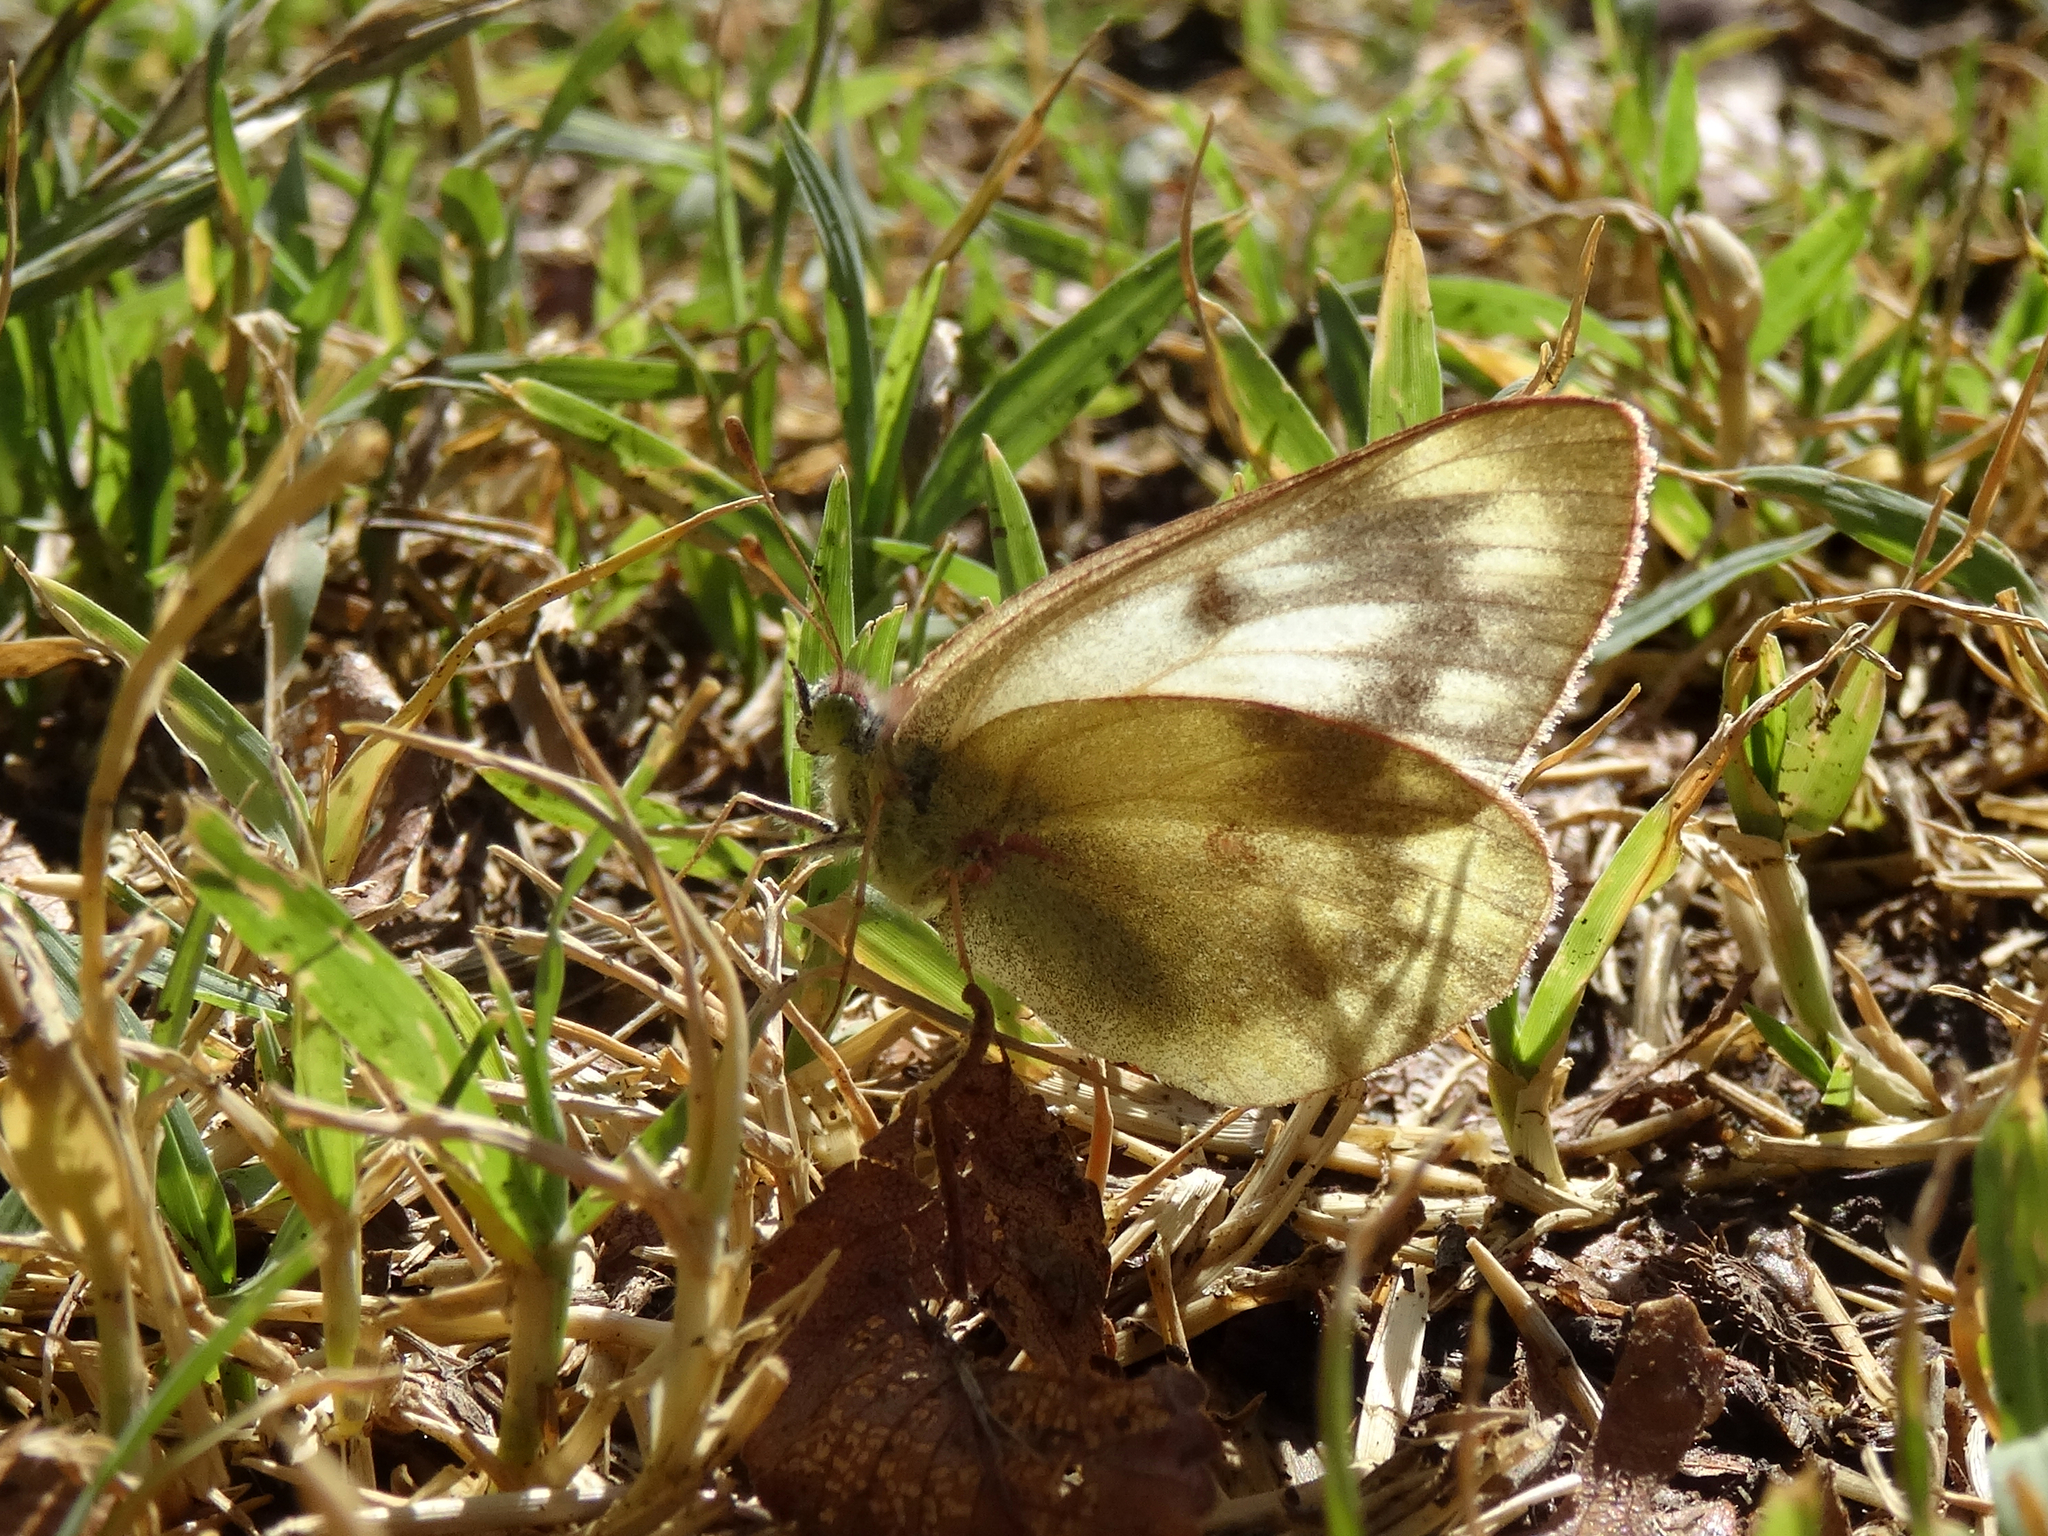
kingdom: Animalia
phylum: Arthropoda
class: Insecta
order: Lepidoptera
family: Pieridae
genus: Colias
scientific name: Colias vauthierii
